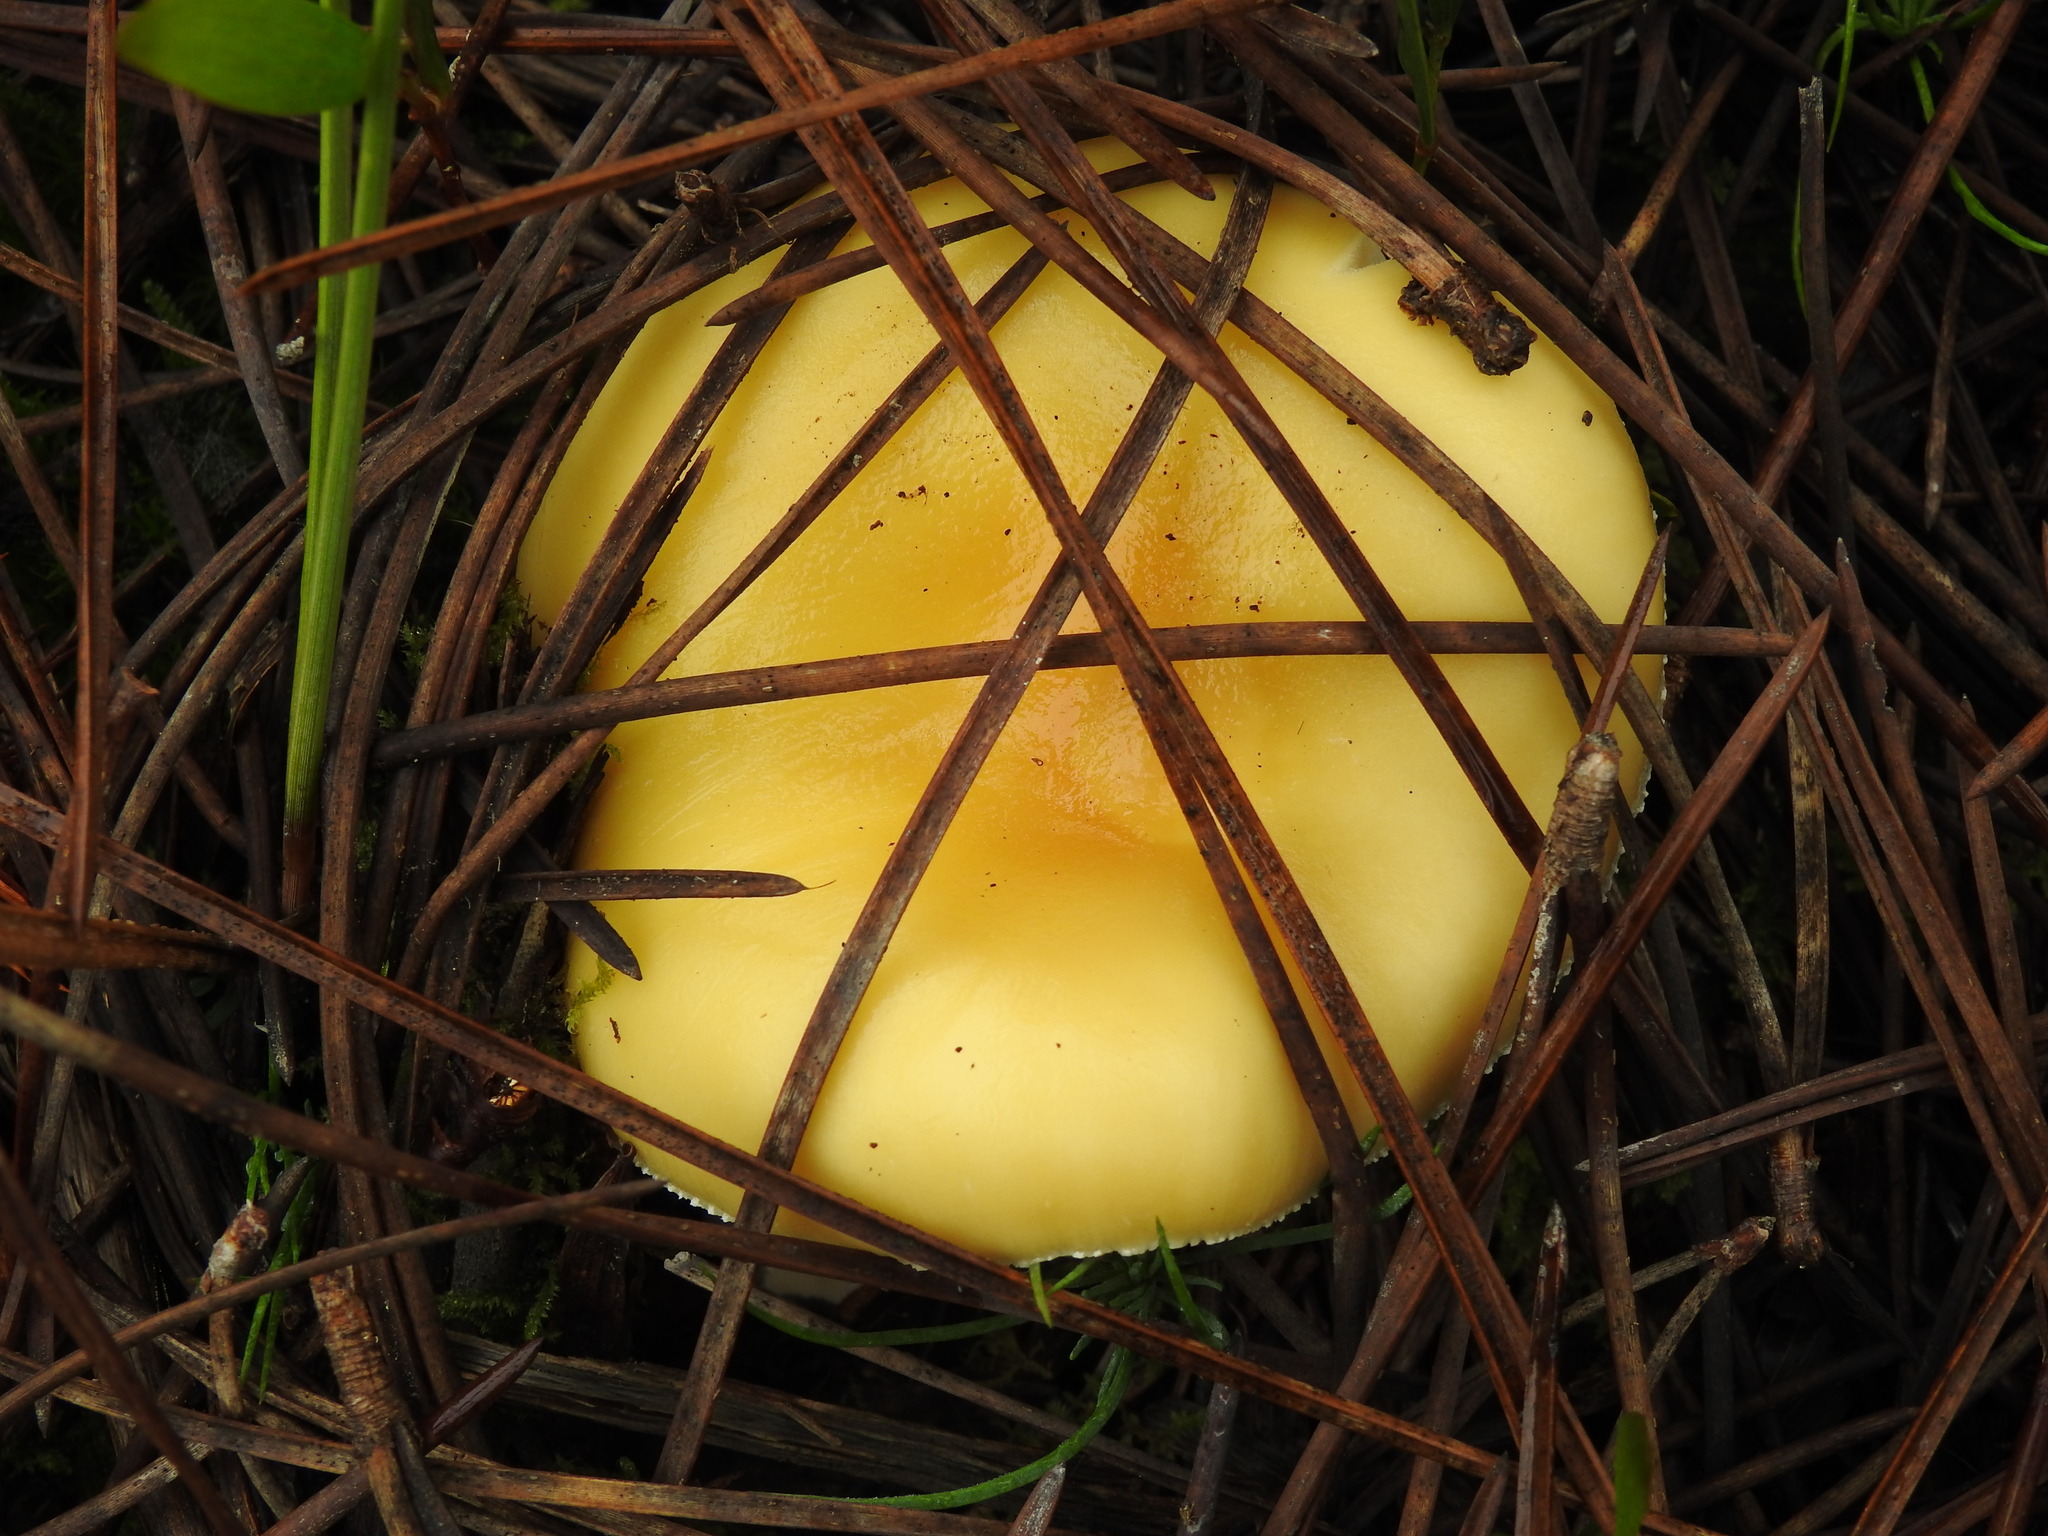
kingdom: Fungi
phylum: Basidiomycota
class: Agaricomycetes
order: Agaricales
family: Amanitaceae
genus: Amanita
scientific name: Amanita gemmata
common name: Jewelled amanita
